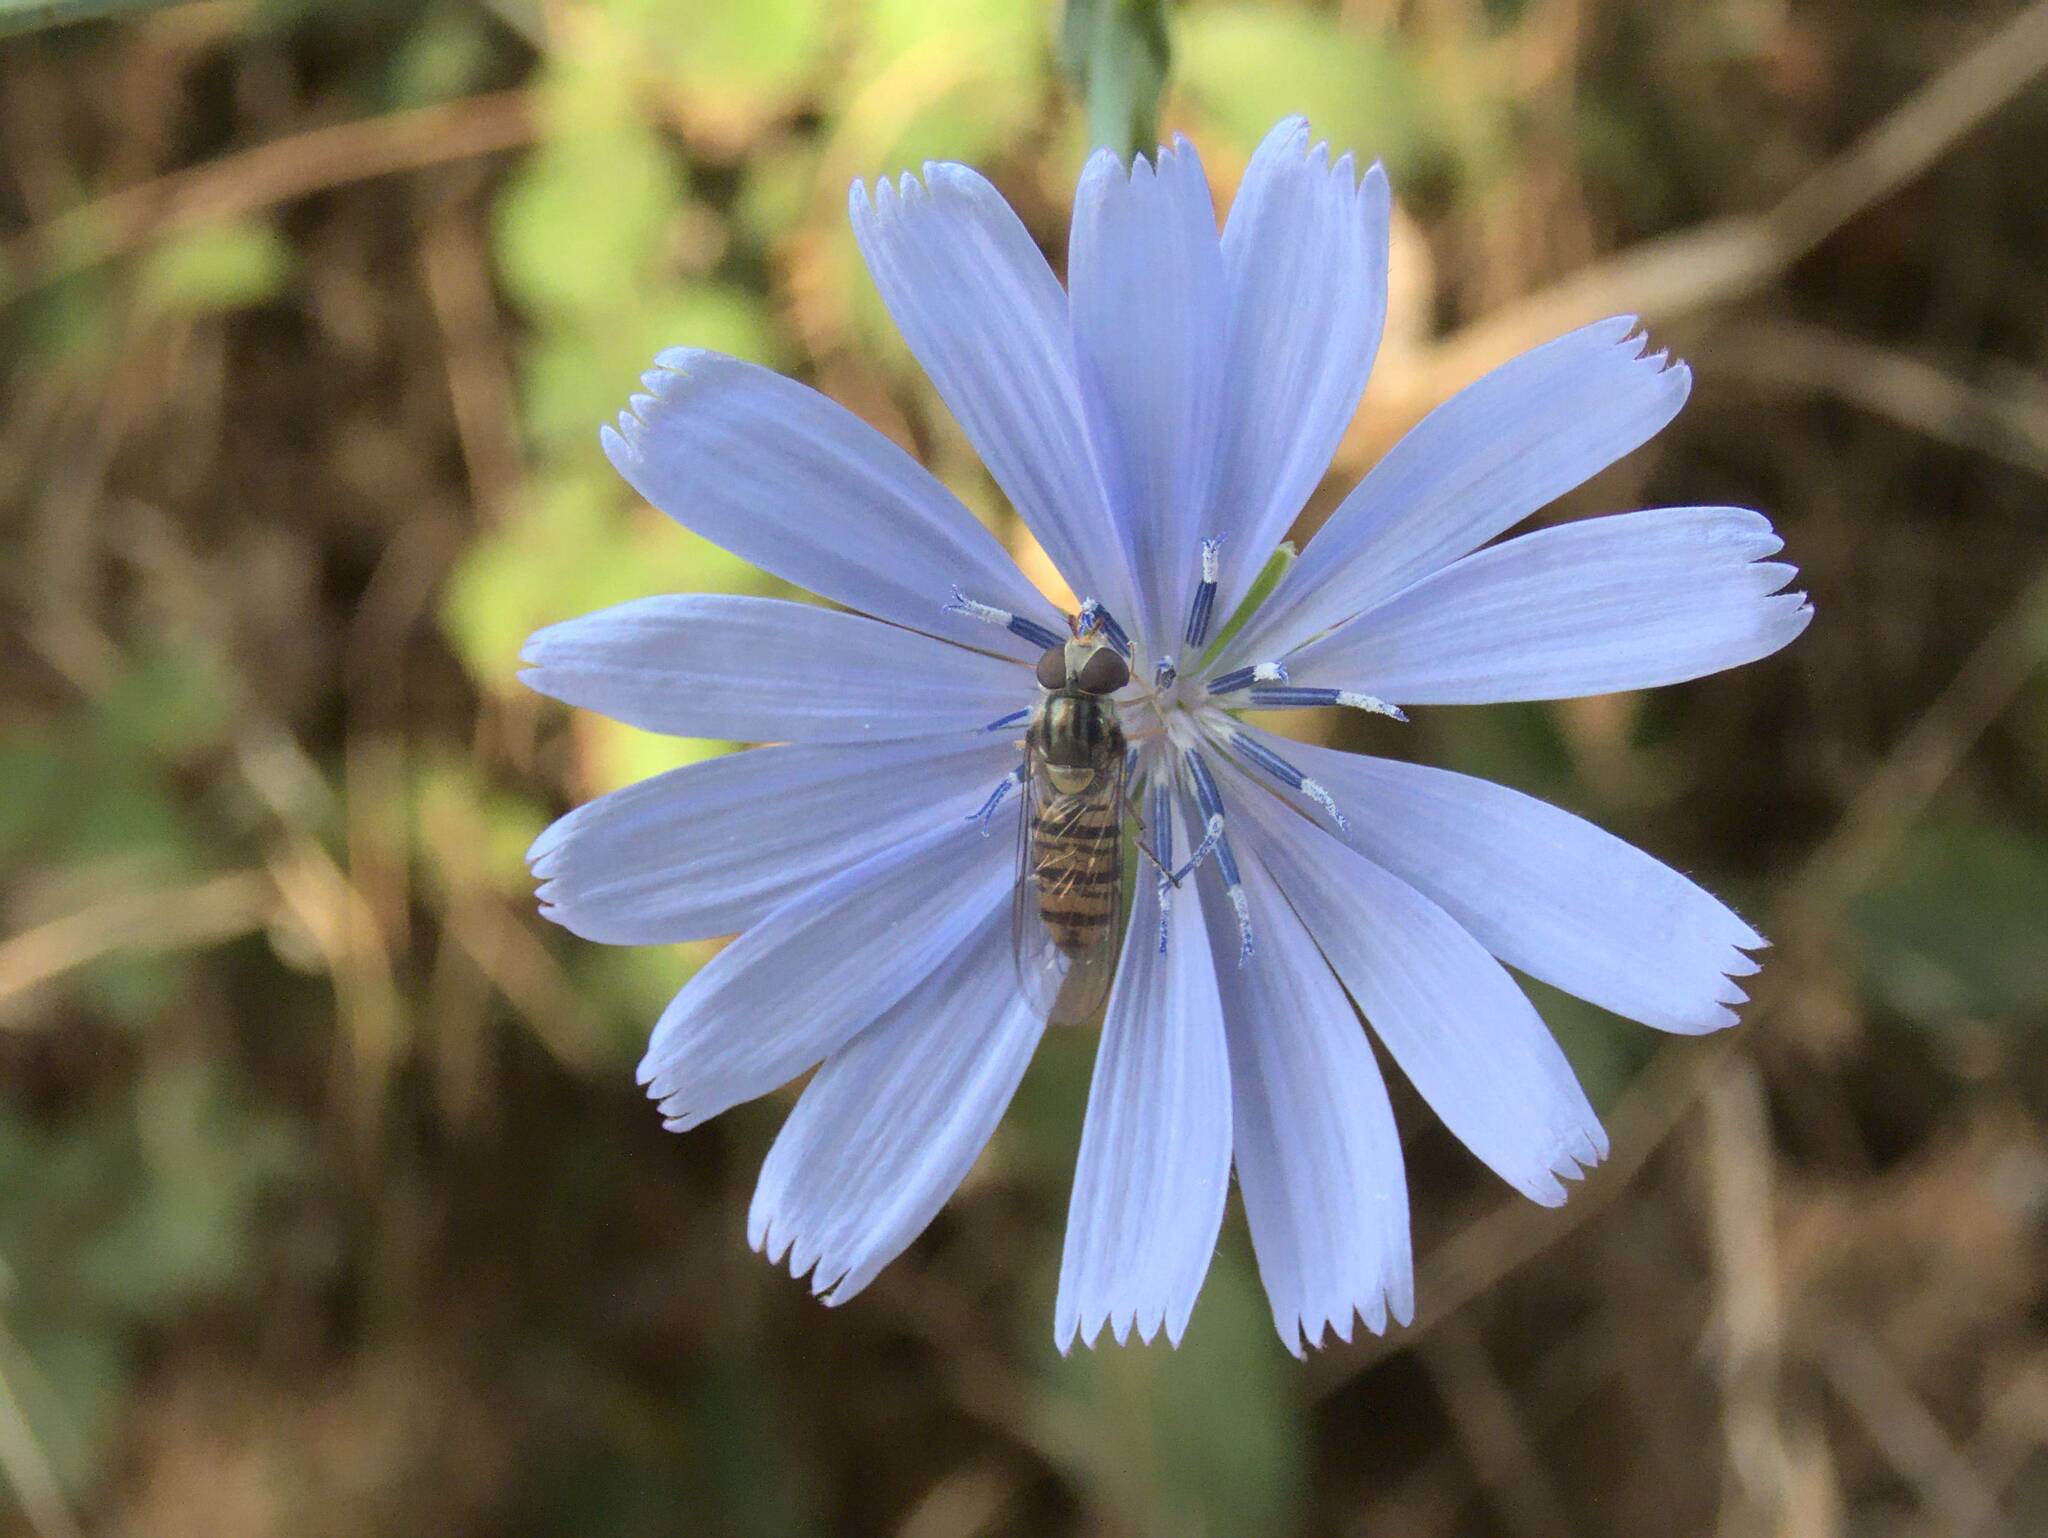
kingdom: Animalia
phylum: Arthropoda
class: Insecta
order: Diptera
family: Syrphidae
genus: Episyrphus
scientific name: Episyrphus balteatus
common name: Marmalade hoverfly
